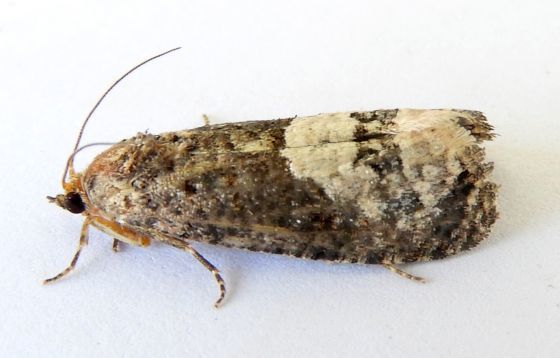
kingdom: Animalia
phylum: Arthropoda
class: Insecta
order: Lepidoptera
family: Tortricidae
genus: Ecdytolopha
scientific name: Ecdytolopha occidentana
